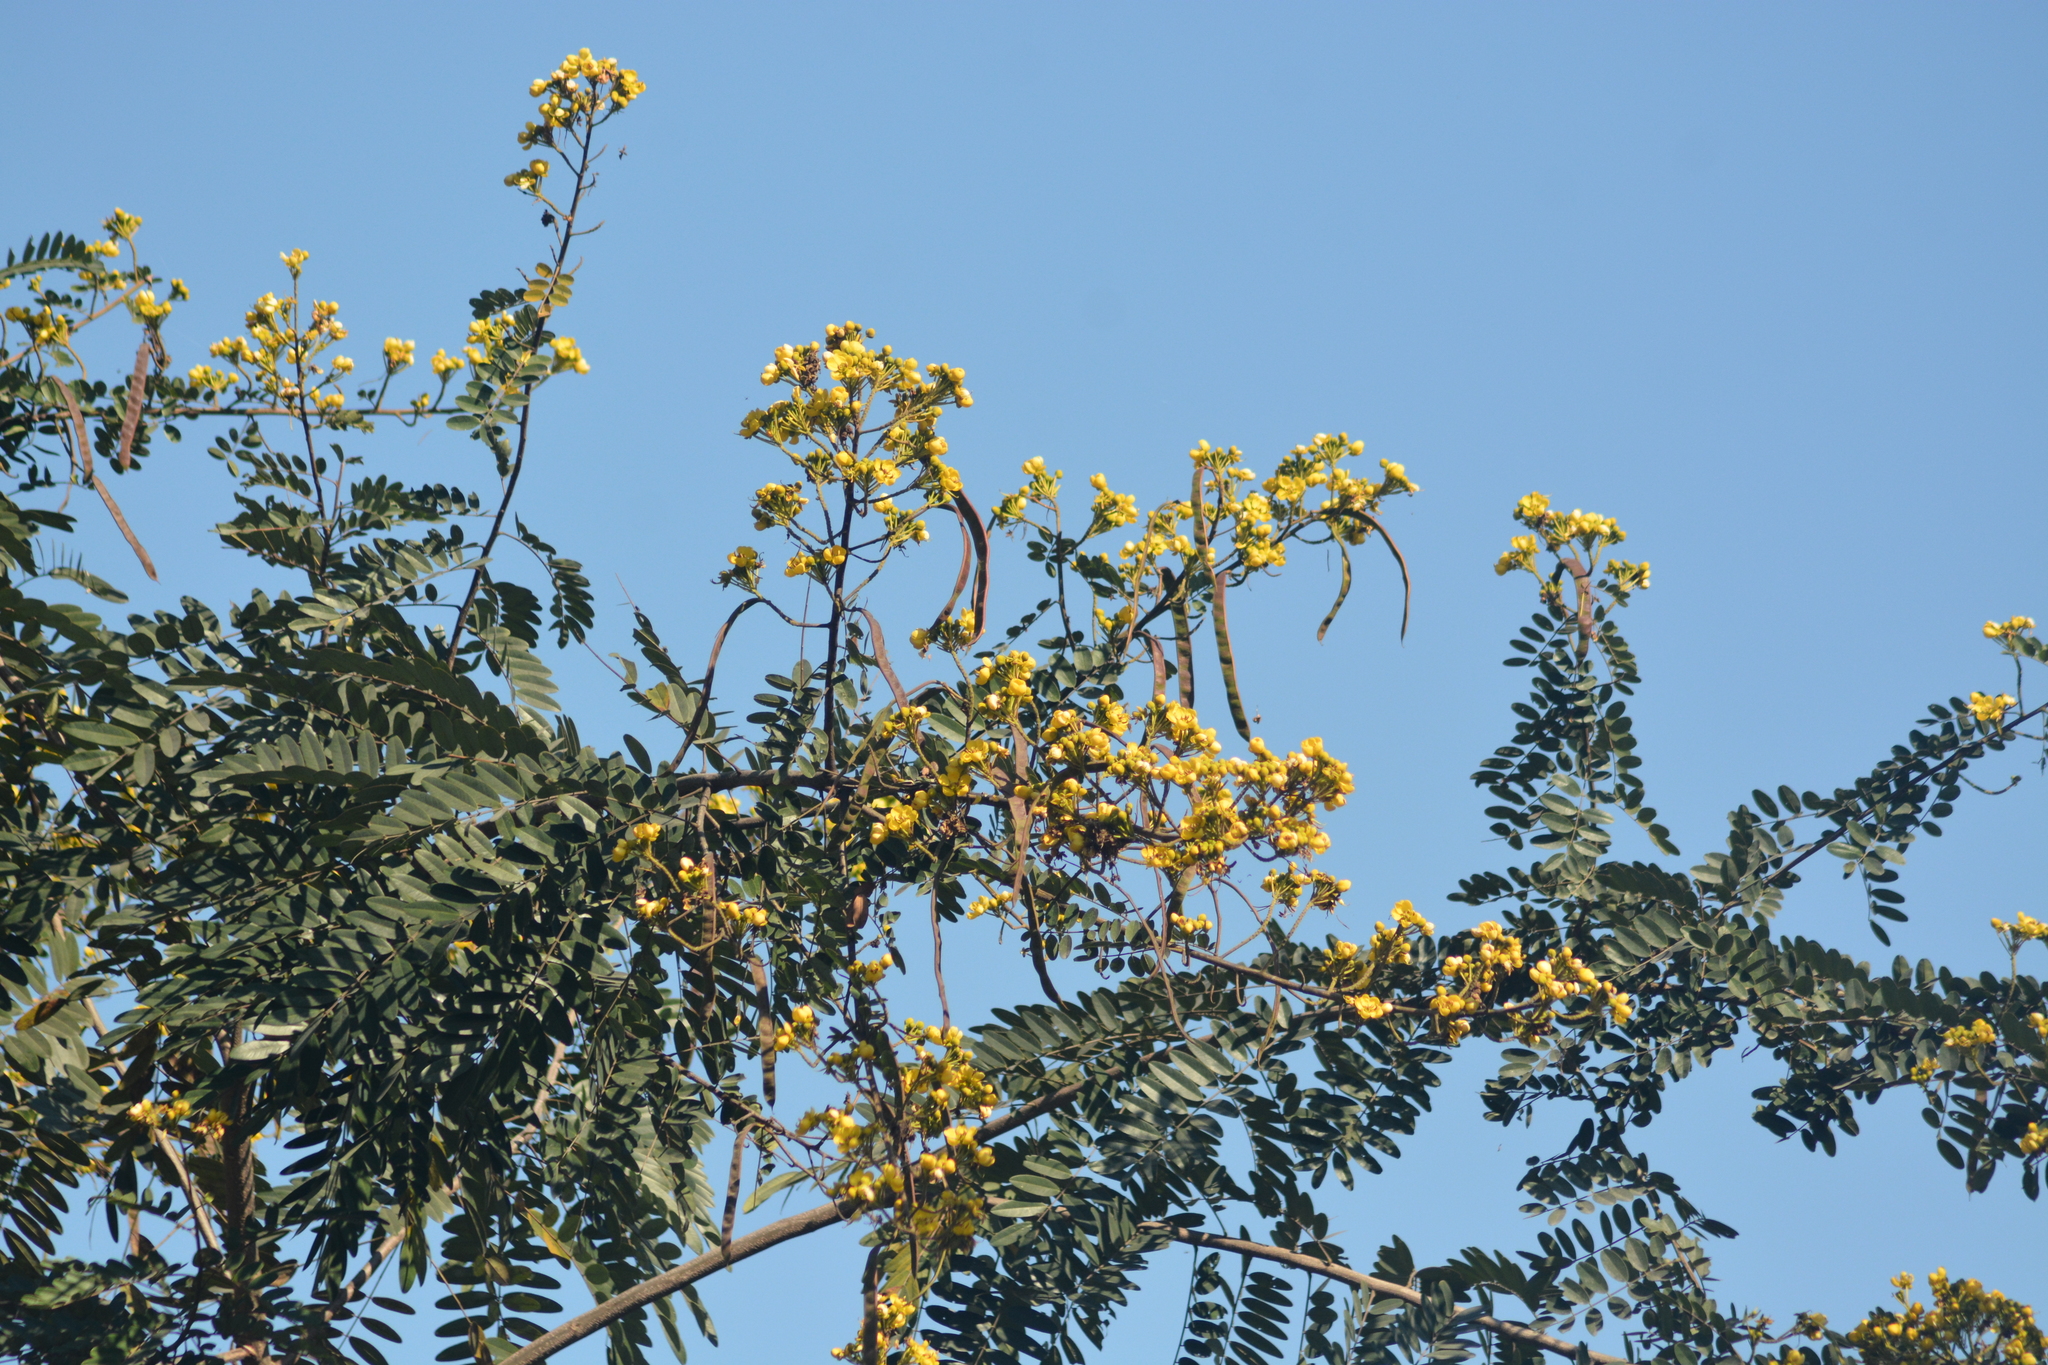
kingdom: Plantae
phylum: Tracheophyta
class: Magnoliopsida
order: Fabales
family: Fabaceae
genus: Senna
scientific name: Senna siamea
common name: Siamese cassia
